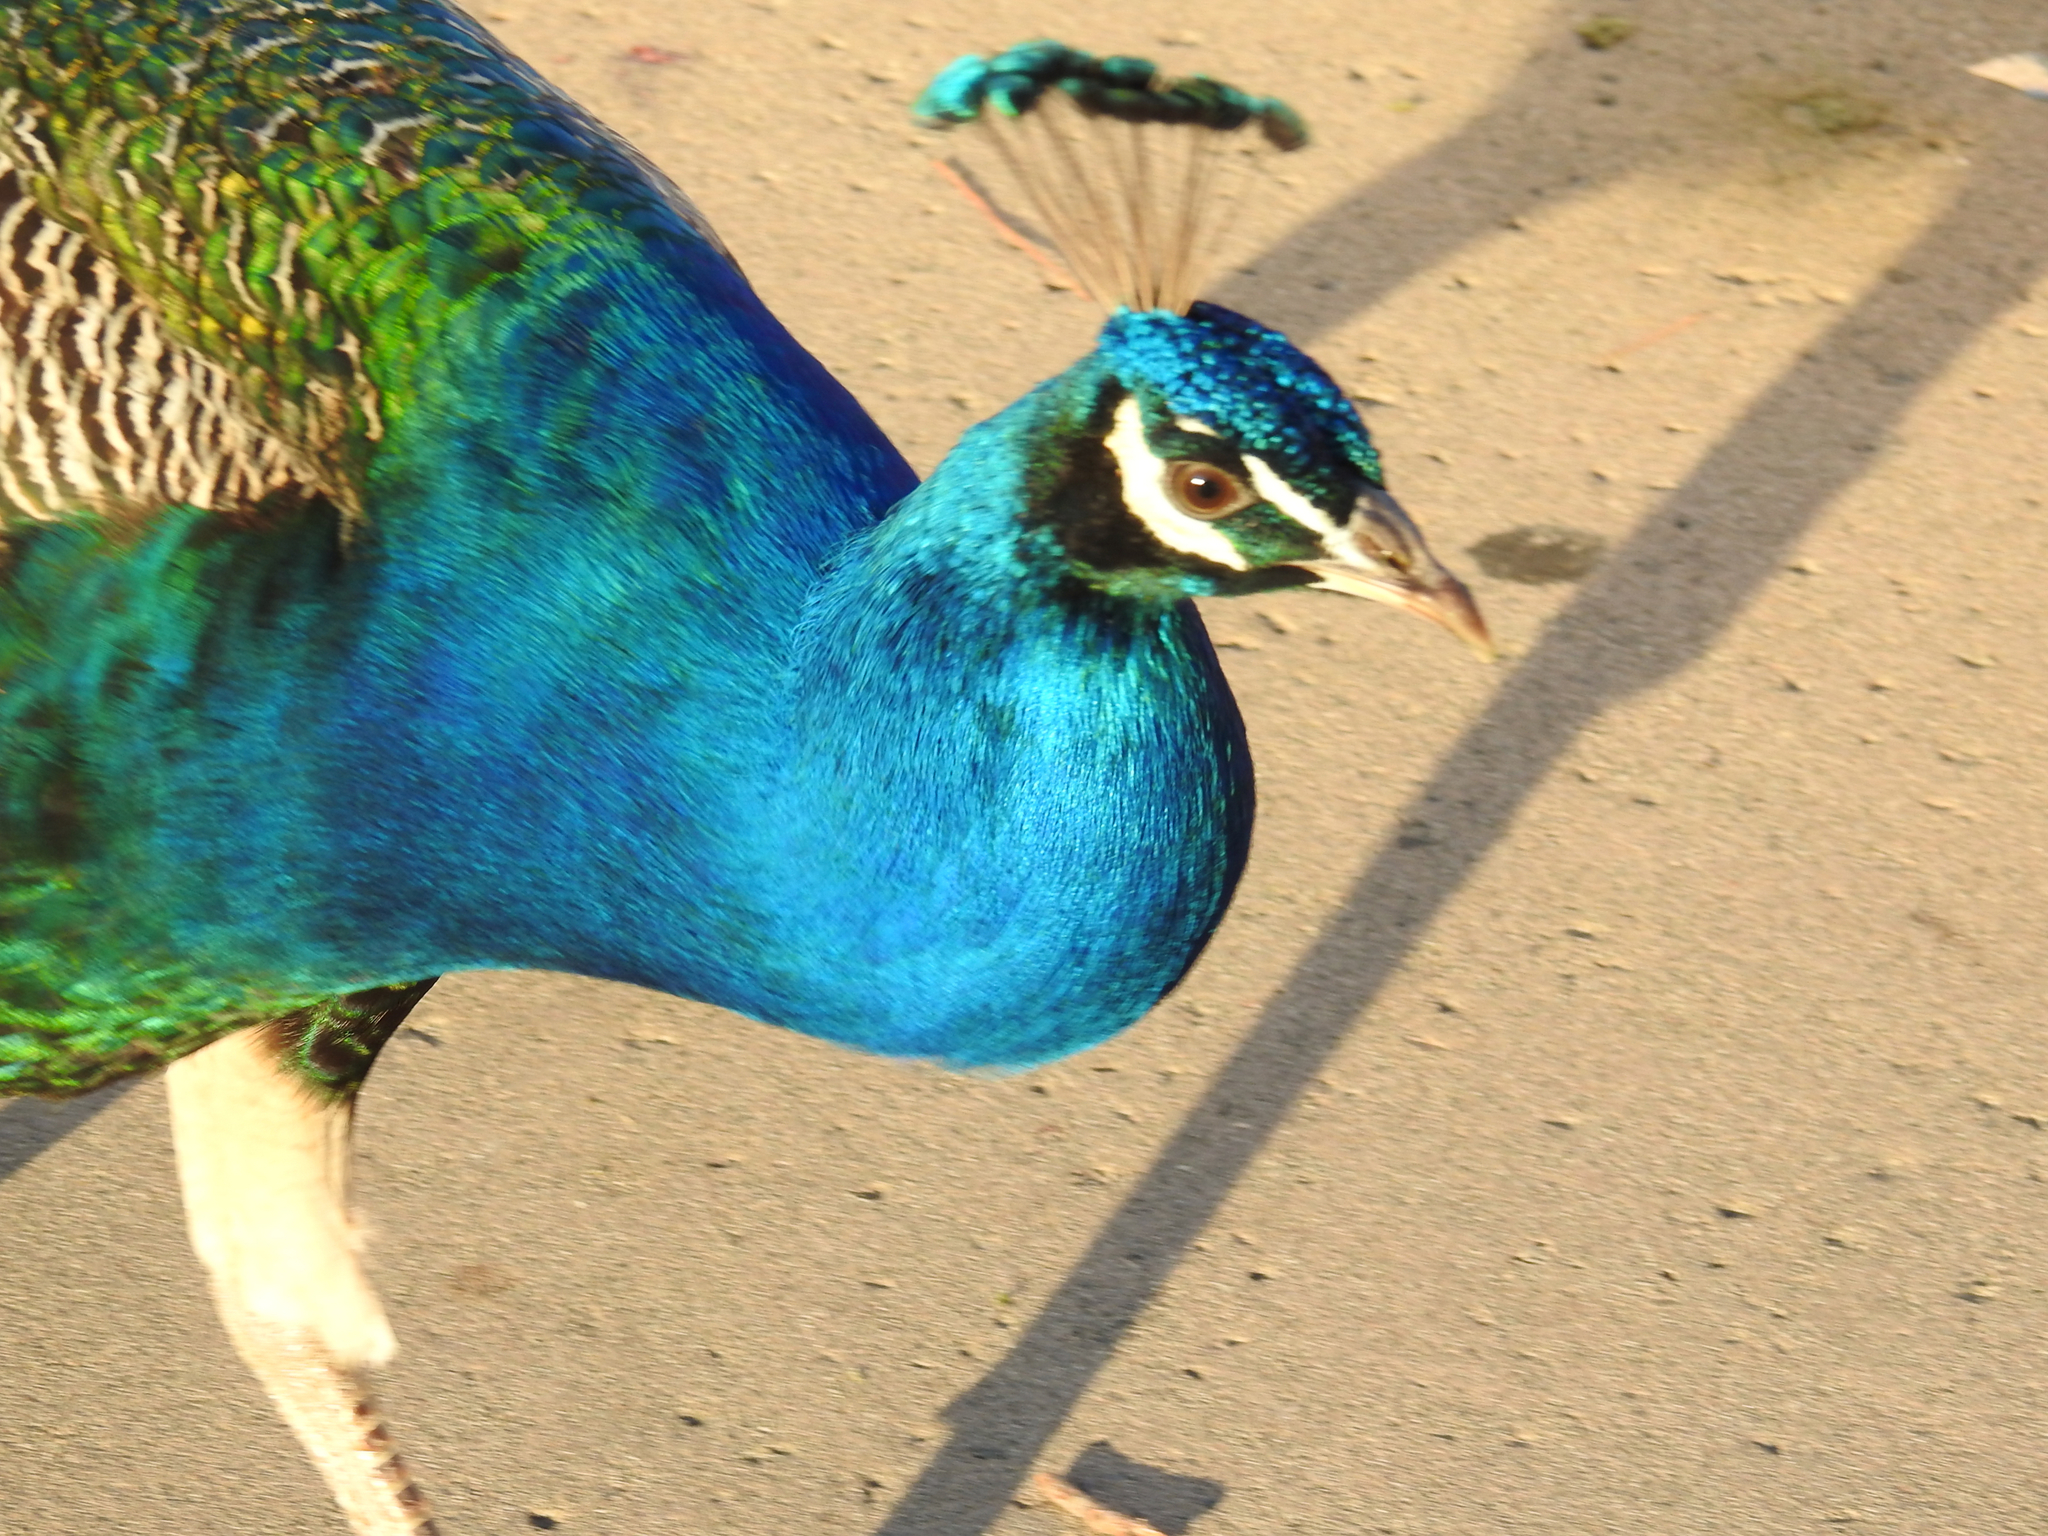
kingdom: Animalia
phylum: Chordata
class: Aves
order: Galliformes
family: Phasianidae
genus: Pavo
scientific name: Pavo cristatus
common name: Indian peafowl
